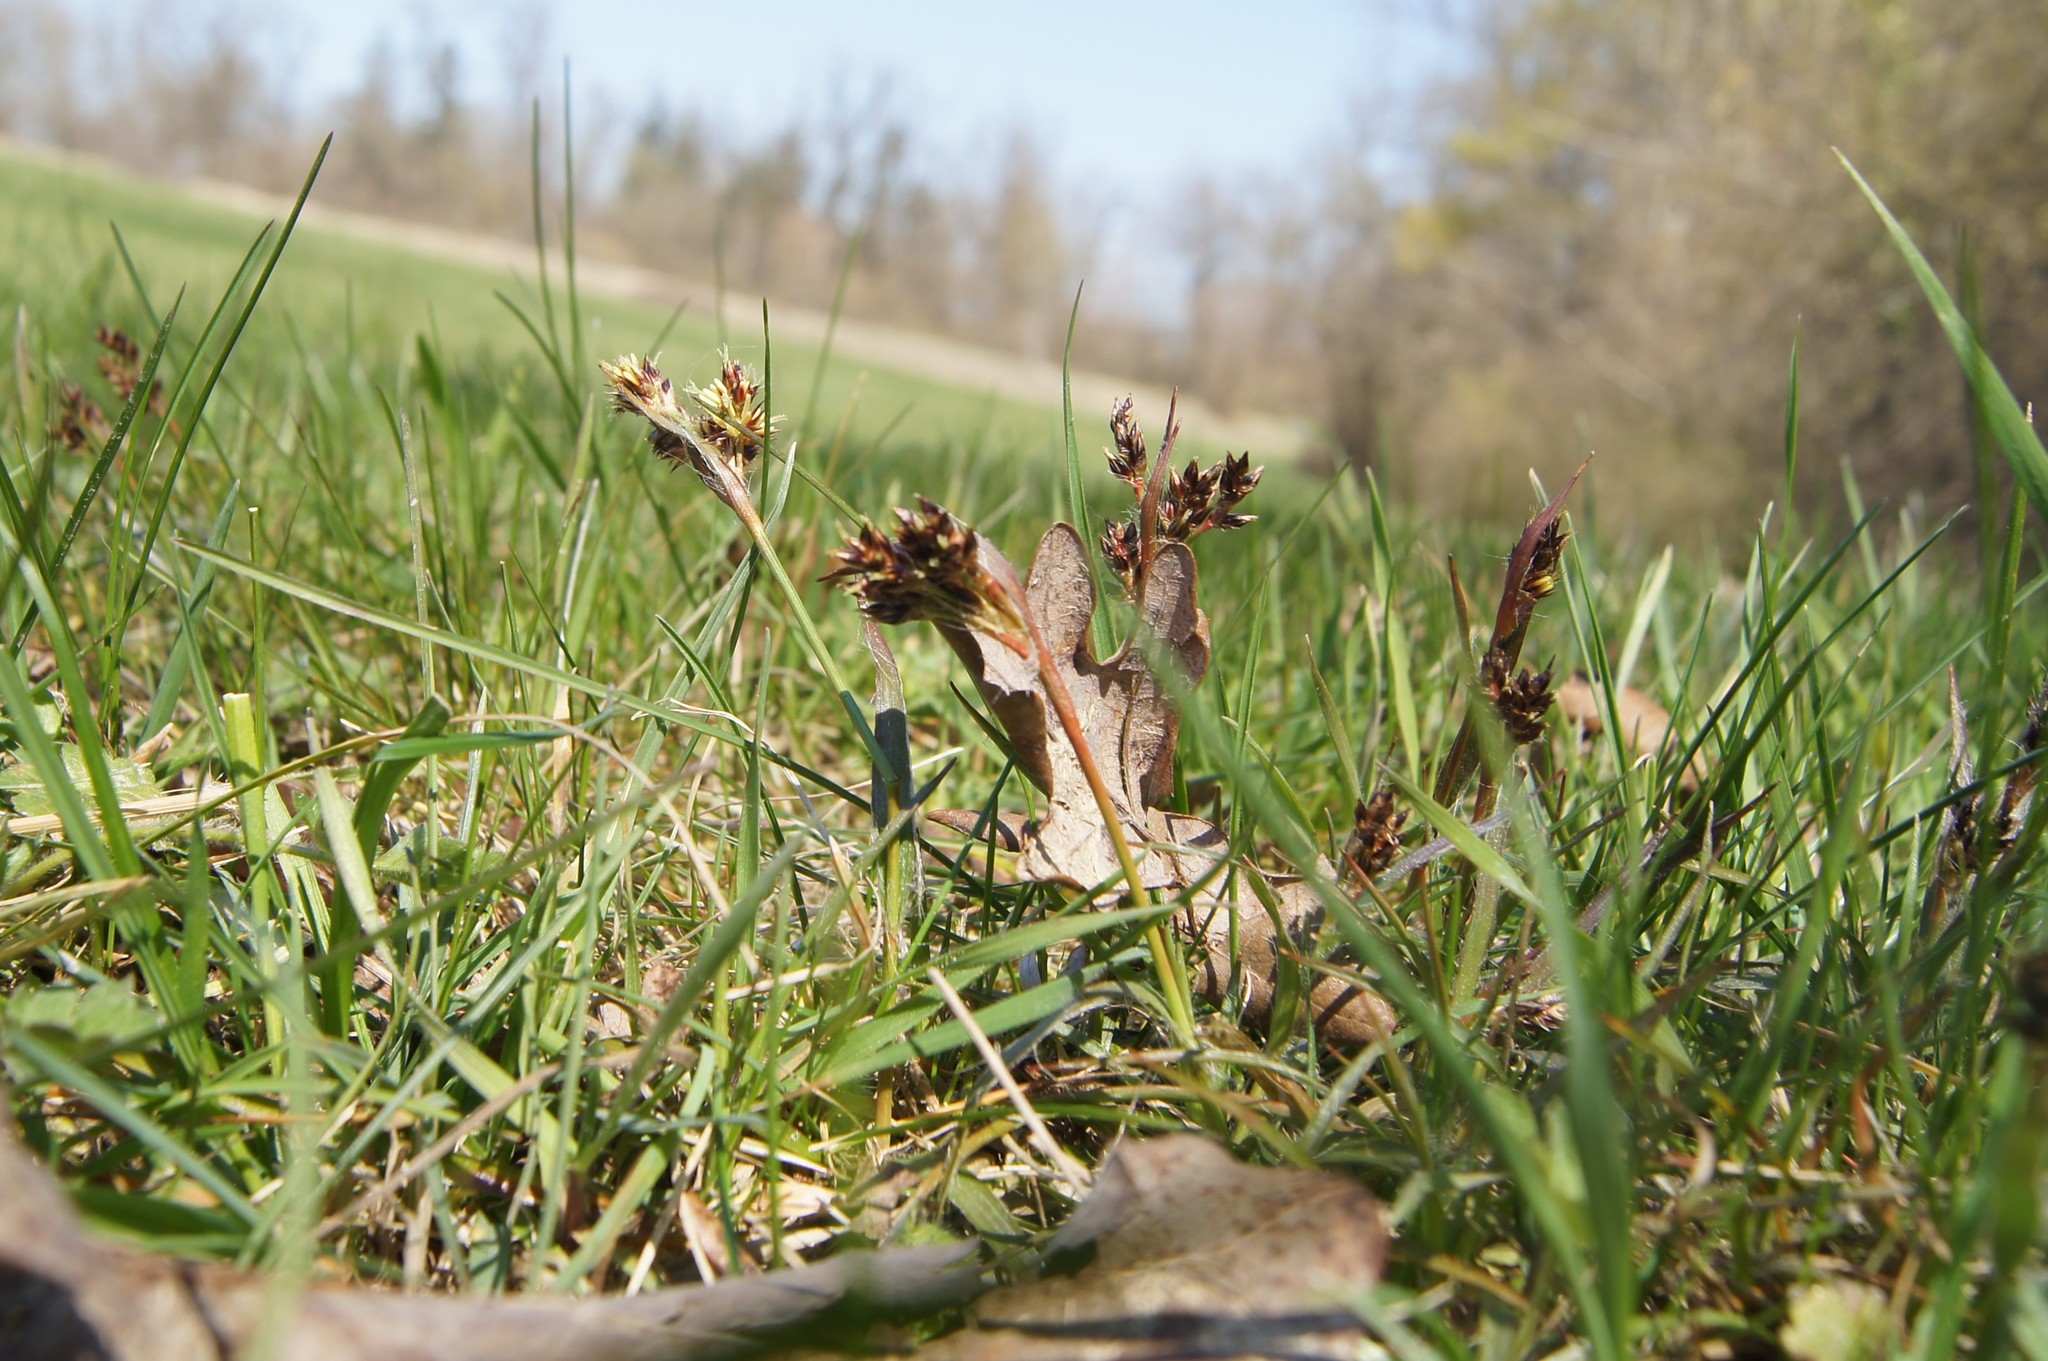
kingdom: Plantae
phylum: Tracheophyta
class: Liliopsida
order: Poales
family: Juncaceae
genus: Luzula
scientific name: Luzula campestris
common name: Field wood-rush
